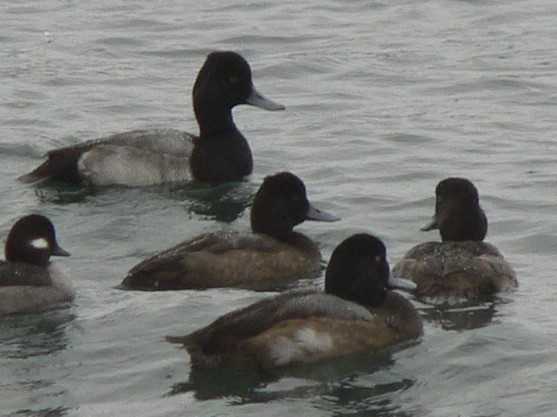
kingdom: Animalia
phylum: Chordata
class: Aves
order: Anseriformes
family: Anatidae
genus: Aythya
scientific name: Aythya affinis
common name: Lesser scaup
